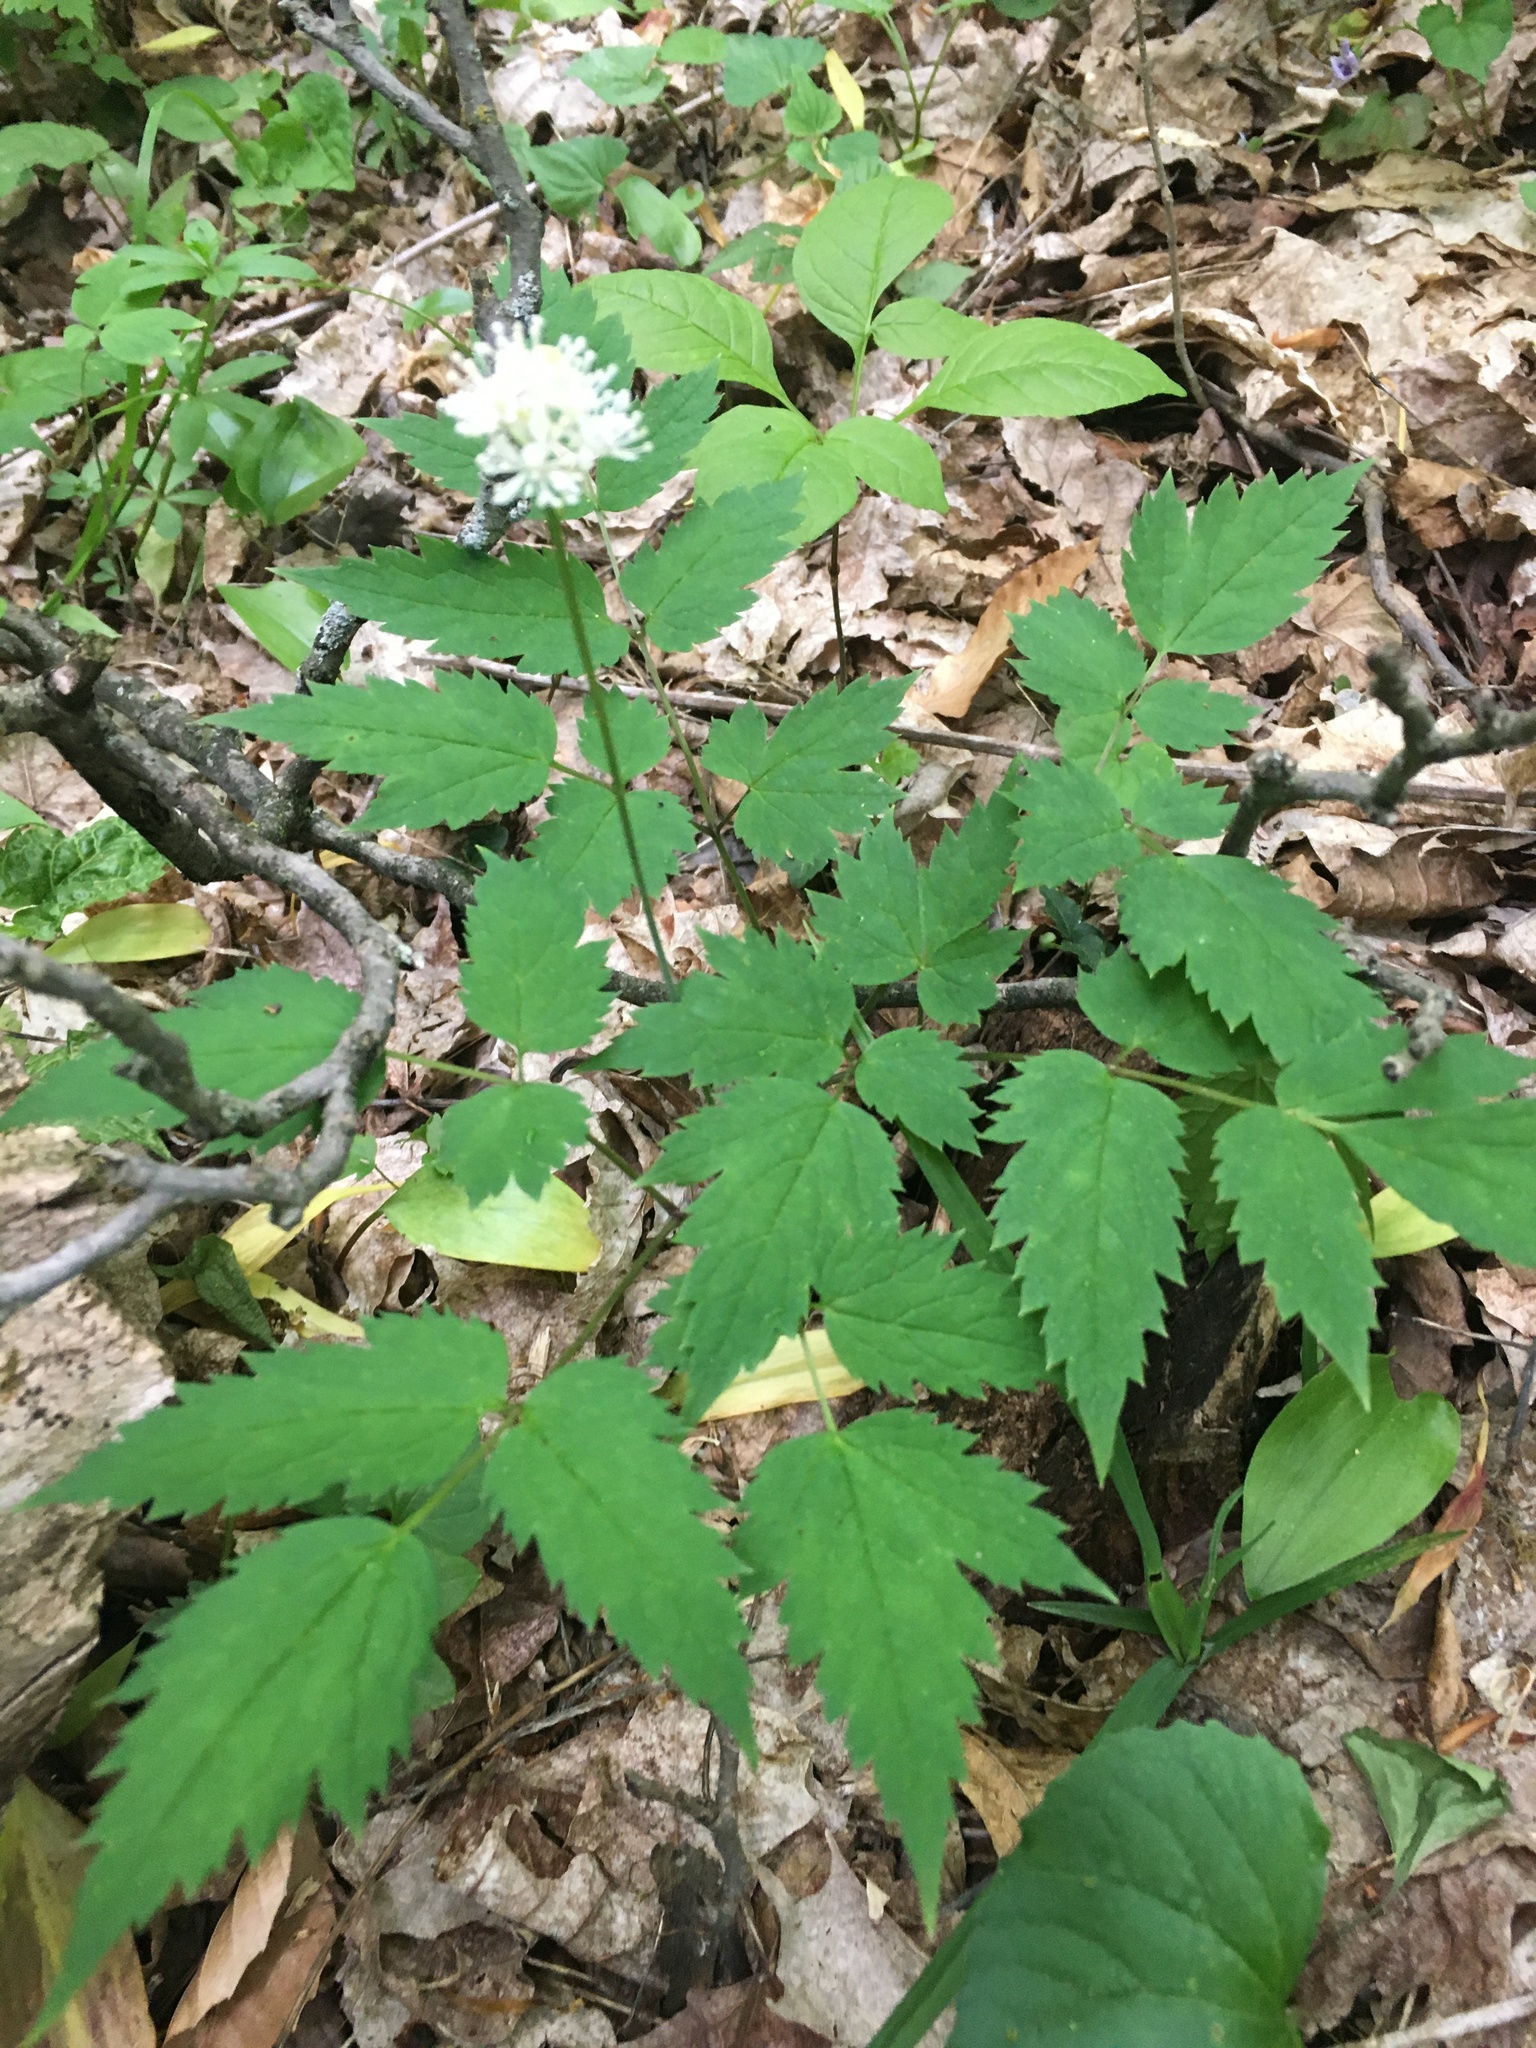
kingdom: Plantae
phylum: Tracheophyta
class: Magnoliopsida
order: Ranunculales
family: Ranunculaceae
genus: Actaea
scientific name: Actaea pachypoda
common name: Doll's-eyes
